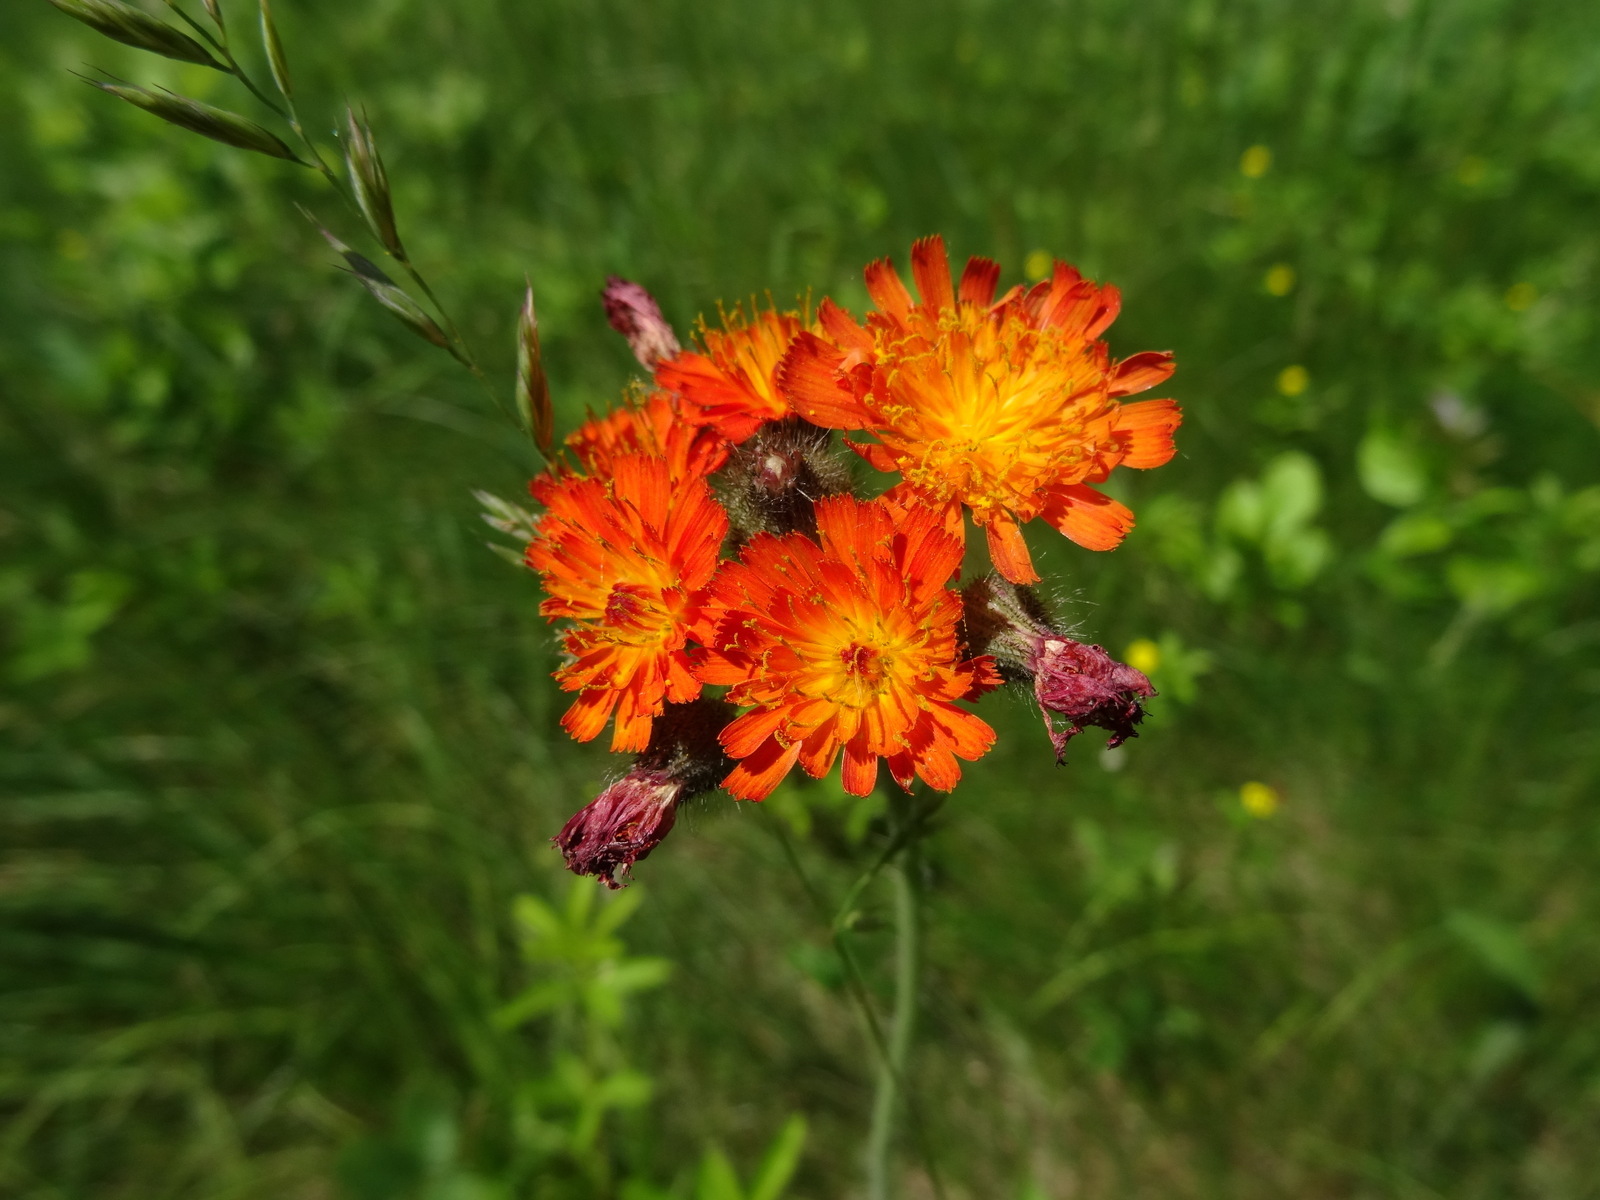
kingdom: Plantae
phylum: Tracheophyta
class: Magnoliopsida
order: Asterales
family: Asteraceae
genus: Pilosella
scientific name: Pilosella aurantiaca
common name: Fox-and-cubs
